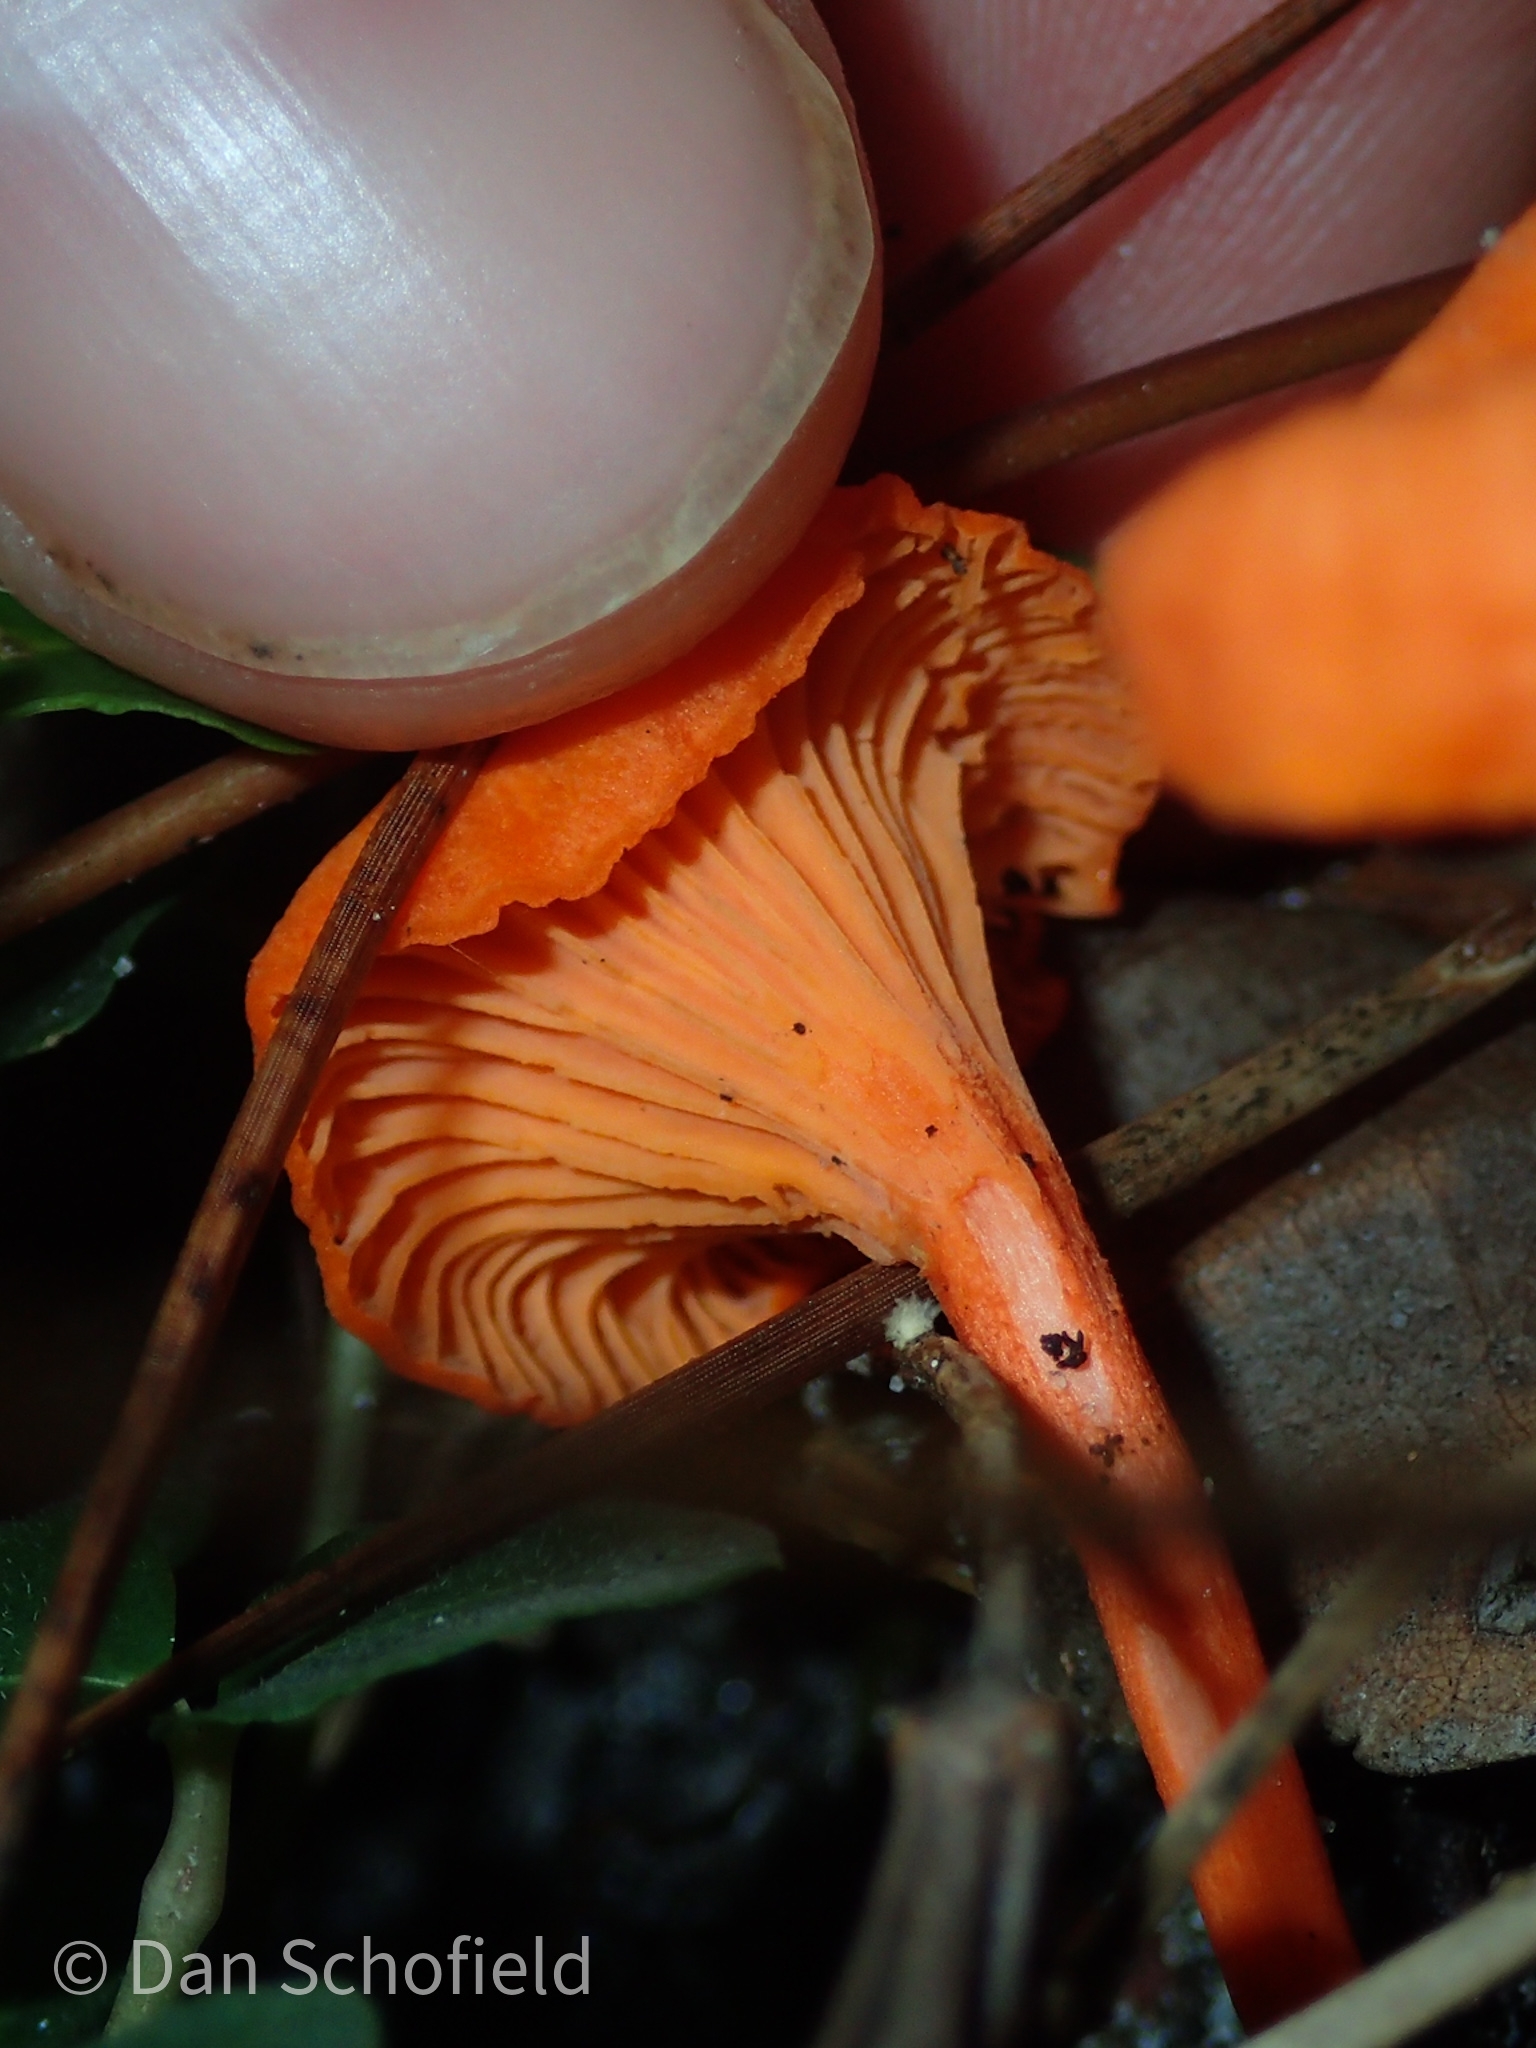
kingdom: Fungi
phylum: Basidiomycota
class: Agaricomycetes
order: Cantharellales
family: Hydnaceae
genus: Cantharellus
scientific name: Cantharellus cinnabarinus
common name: Cinnabar chanterelle
